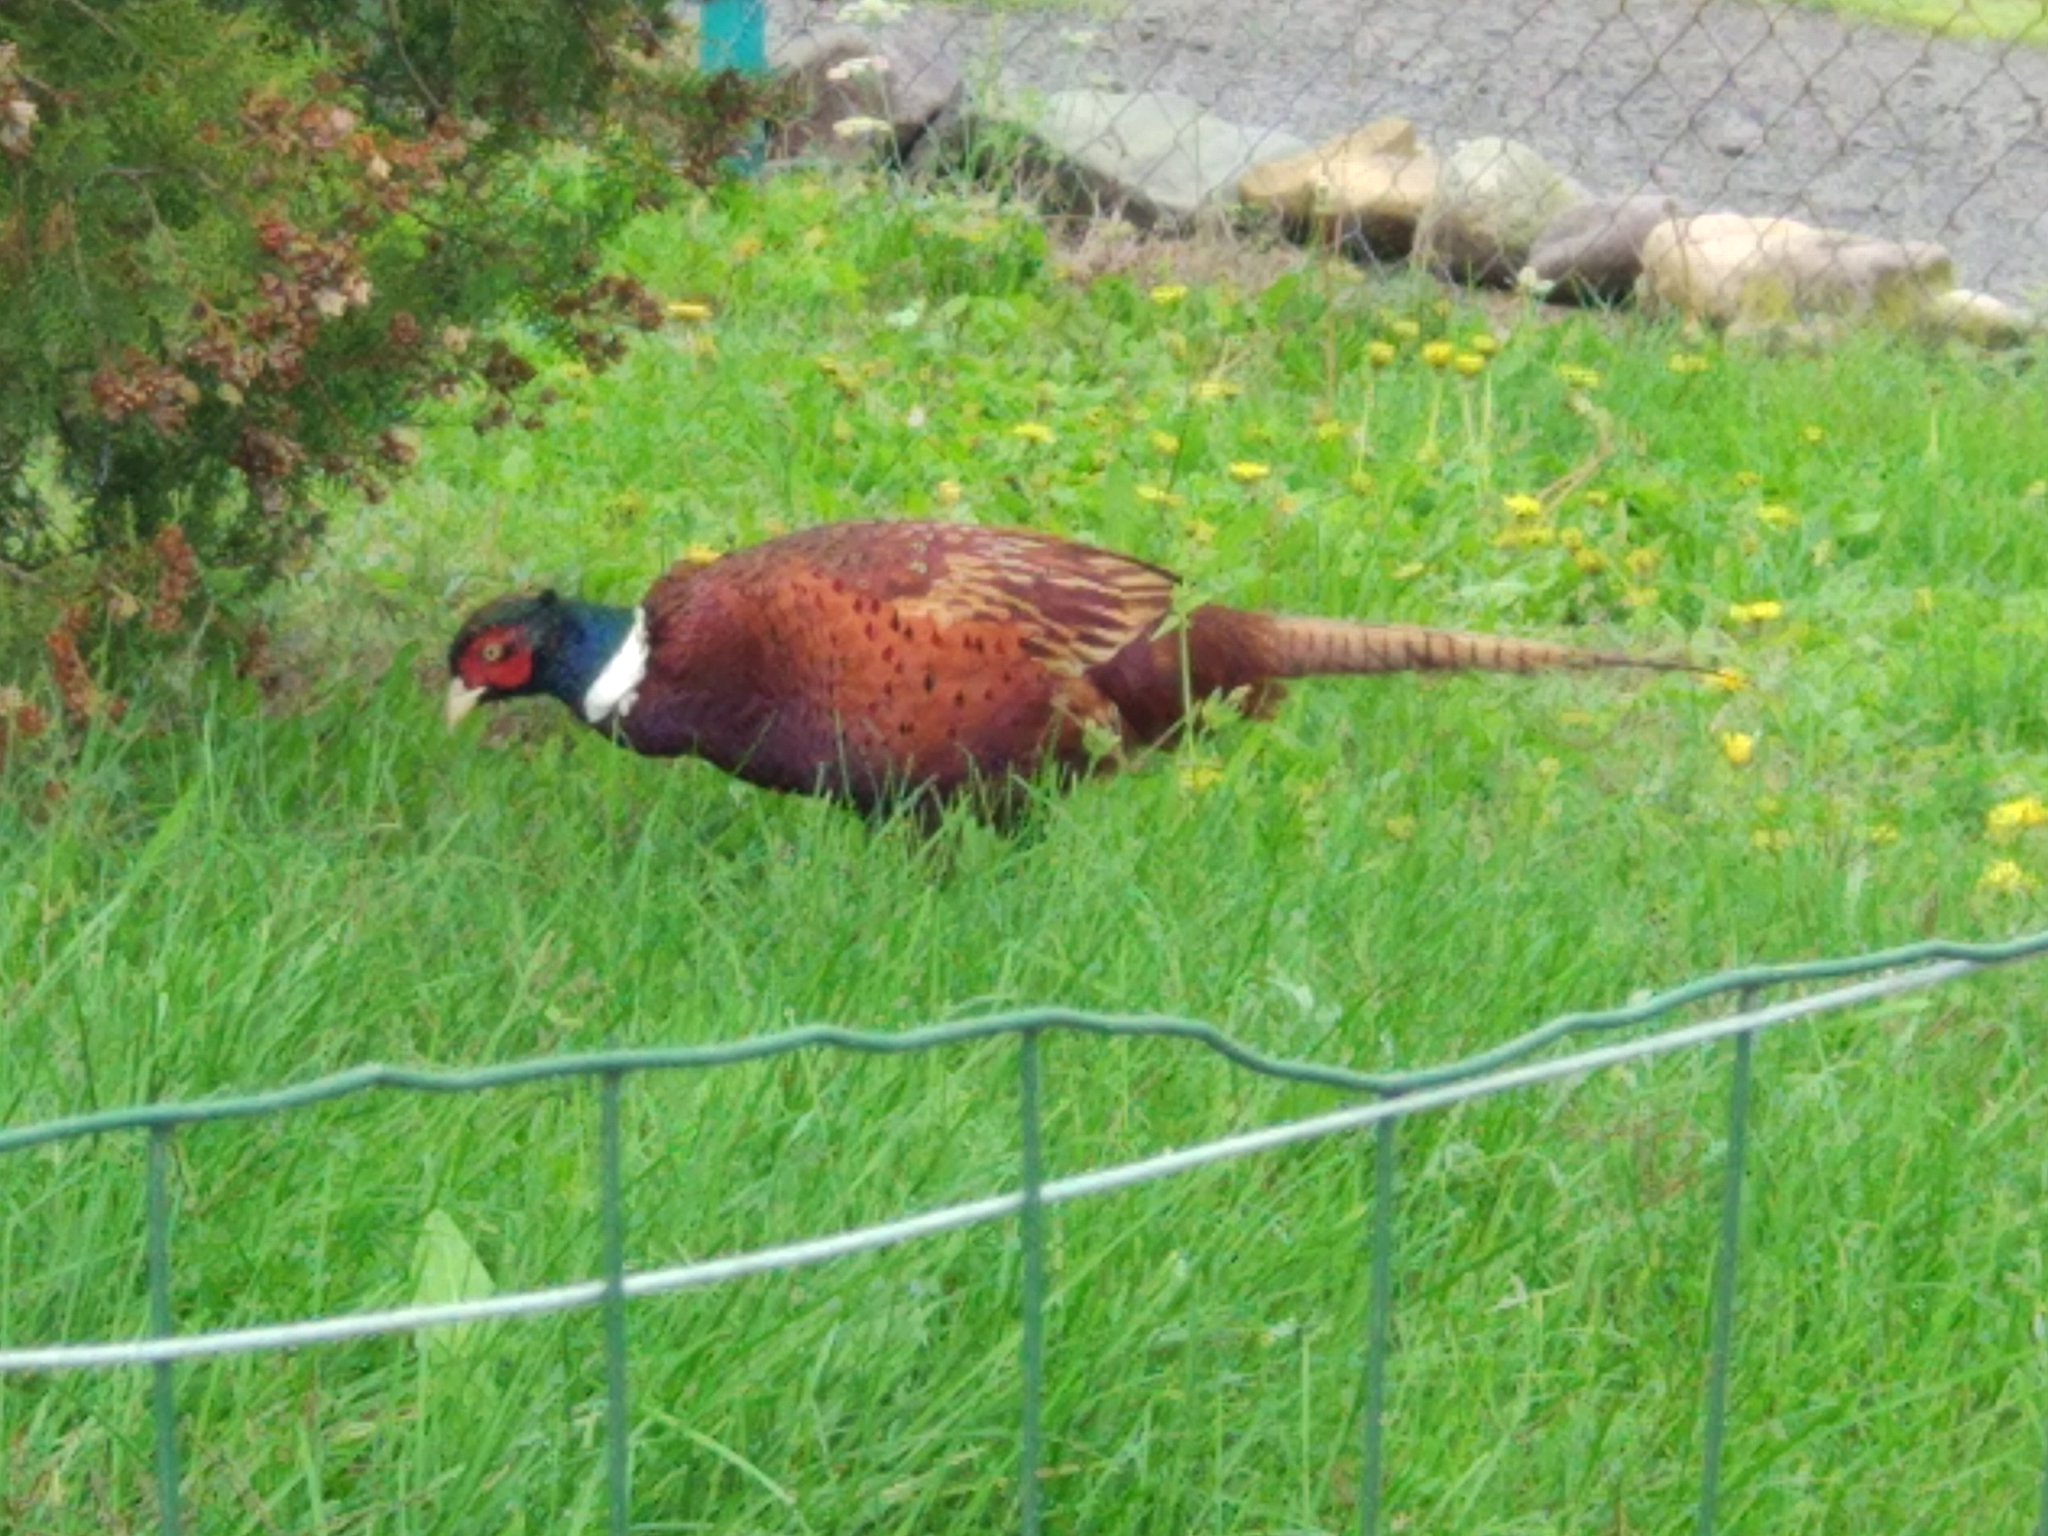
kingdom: Animalia
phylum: Chordata
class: Aves
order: Galliformes
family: Phasianidae
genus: Phasianus
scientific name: Phasianus colchicus
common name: Common pheasant
